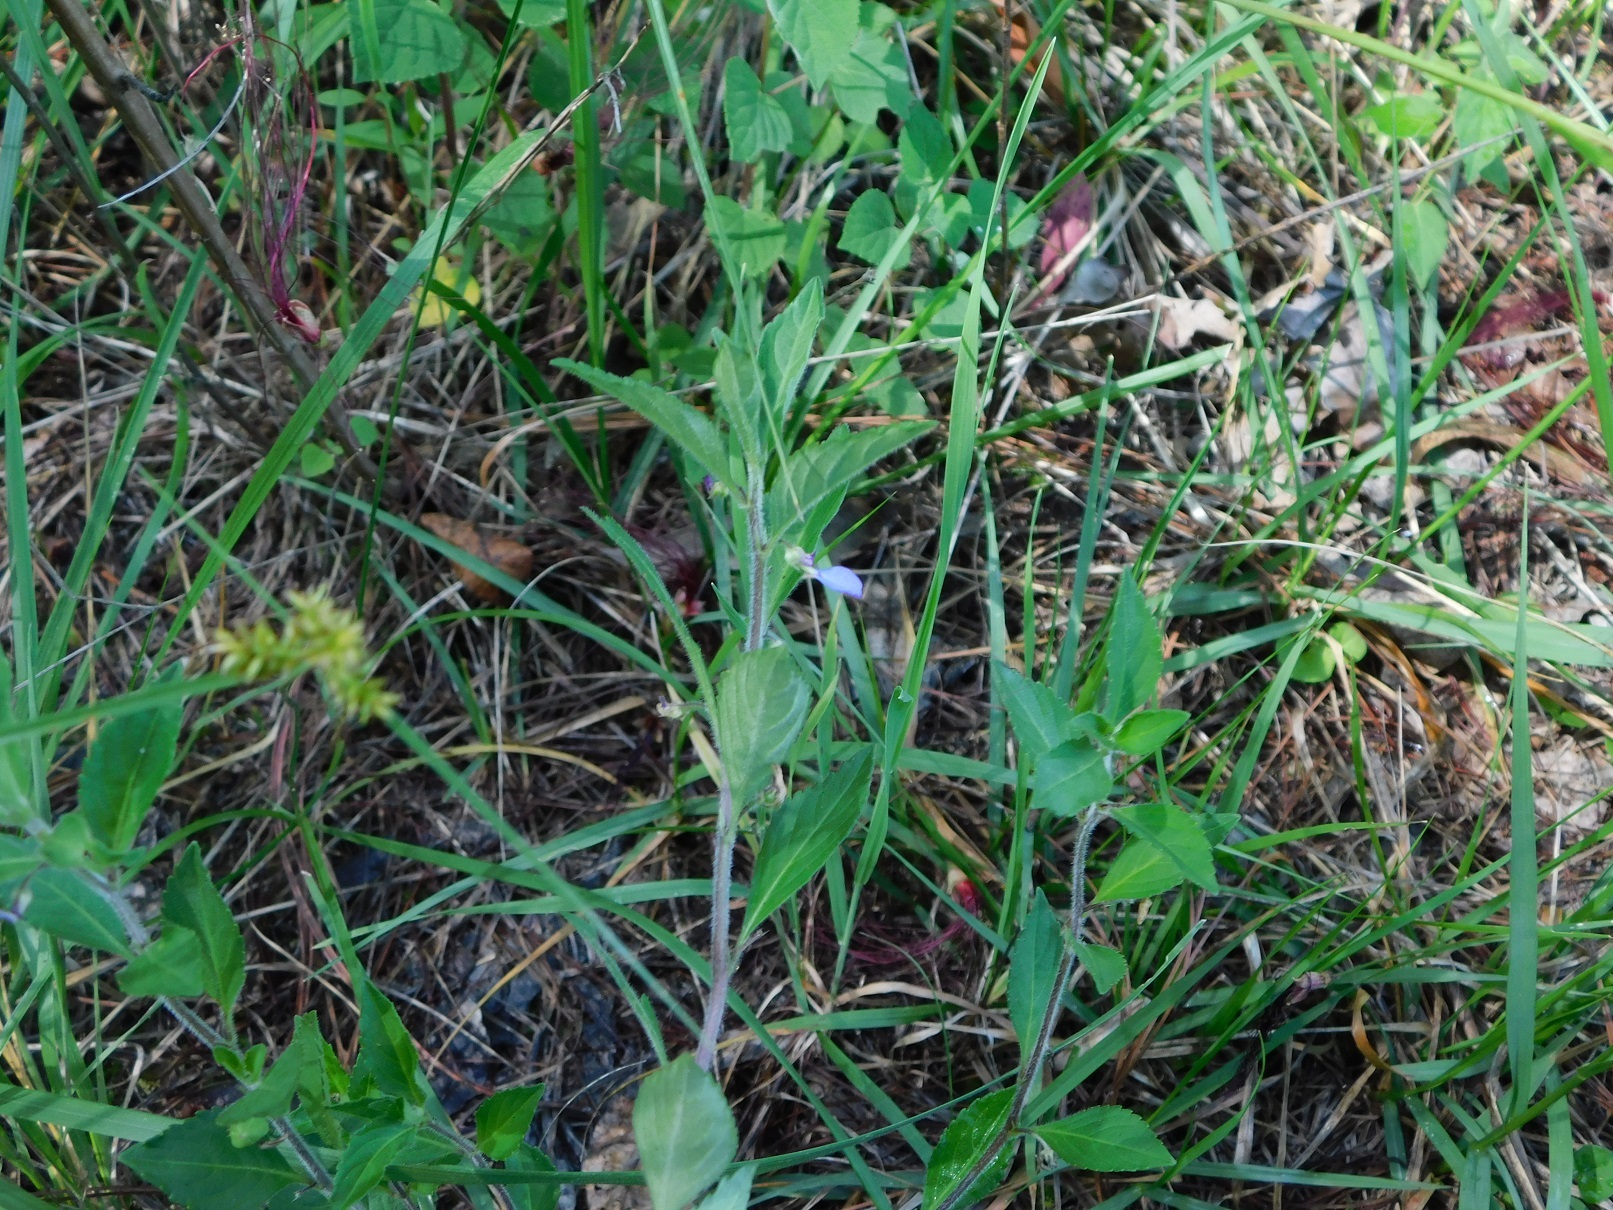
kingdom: Plantae
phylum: Tracheophyta
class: Magnoliopsida
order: Malpighiales
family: Violaceae
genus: Hybanthus
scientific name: Hybanthus longipes
